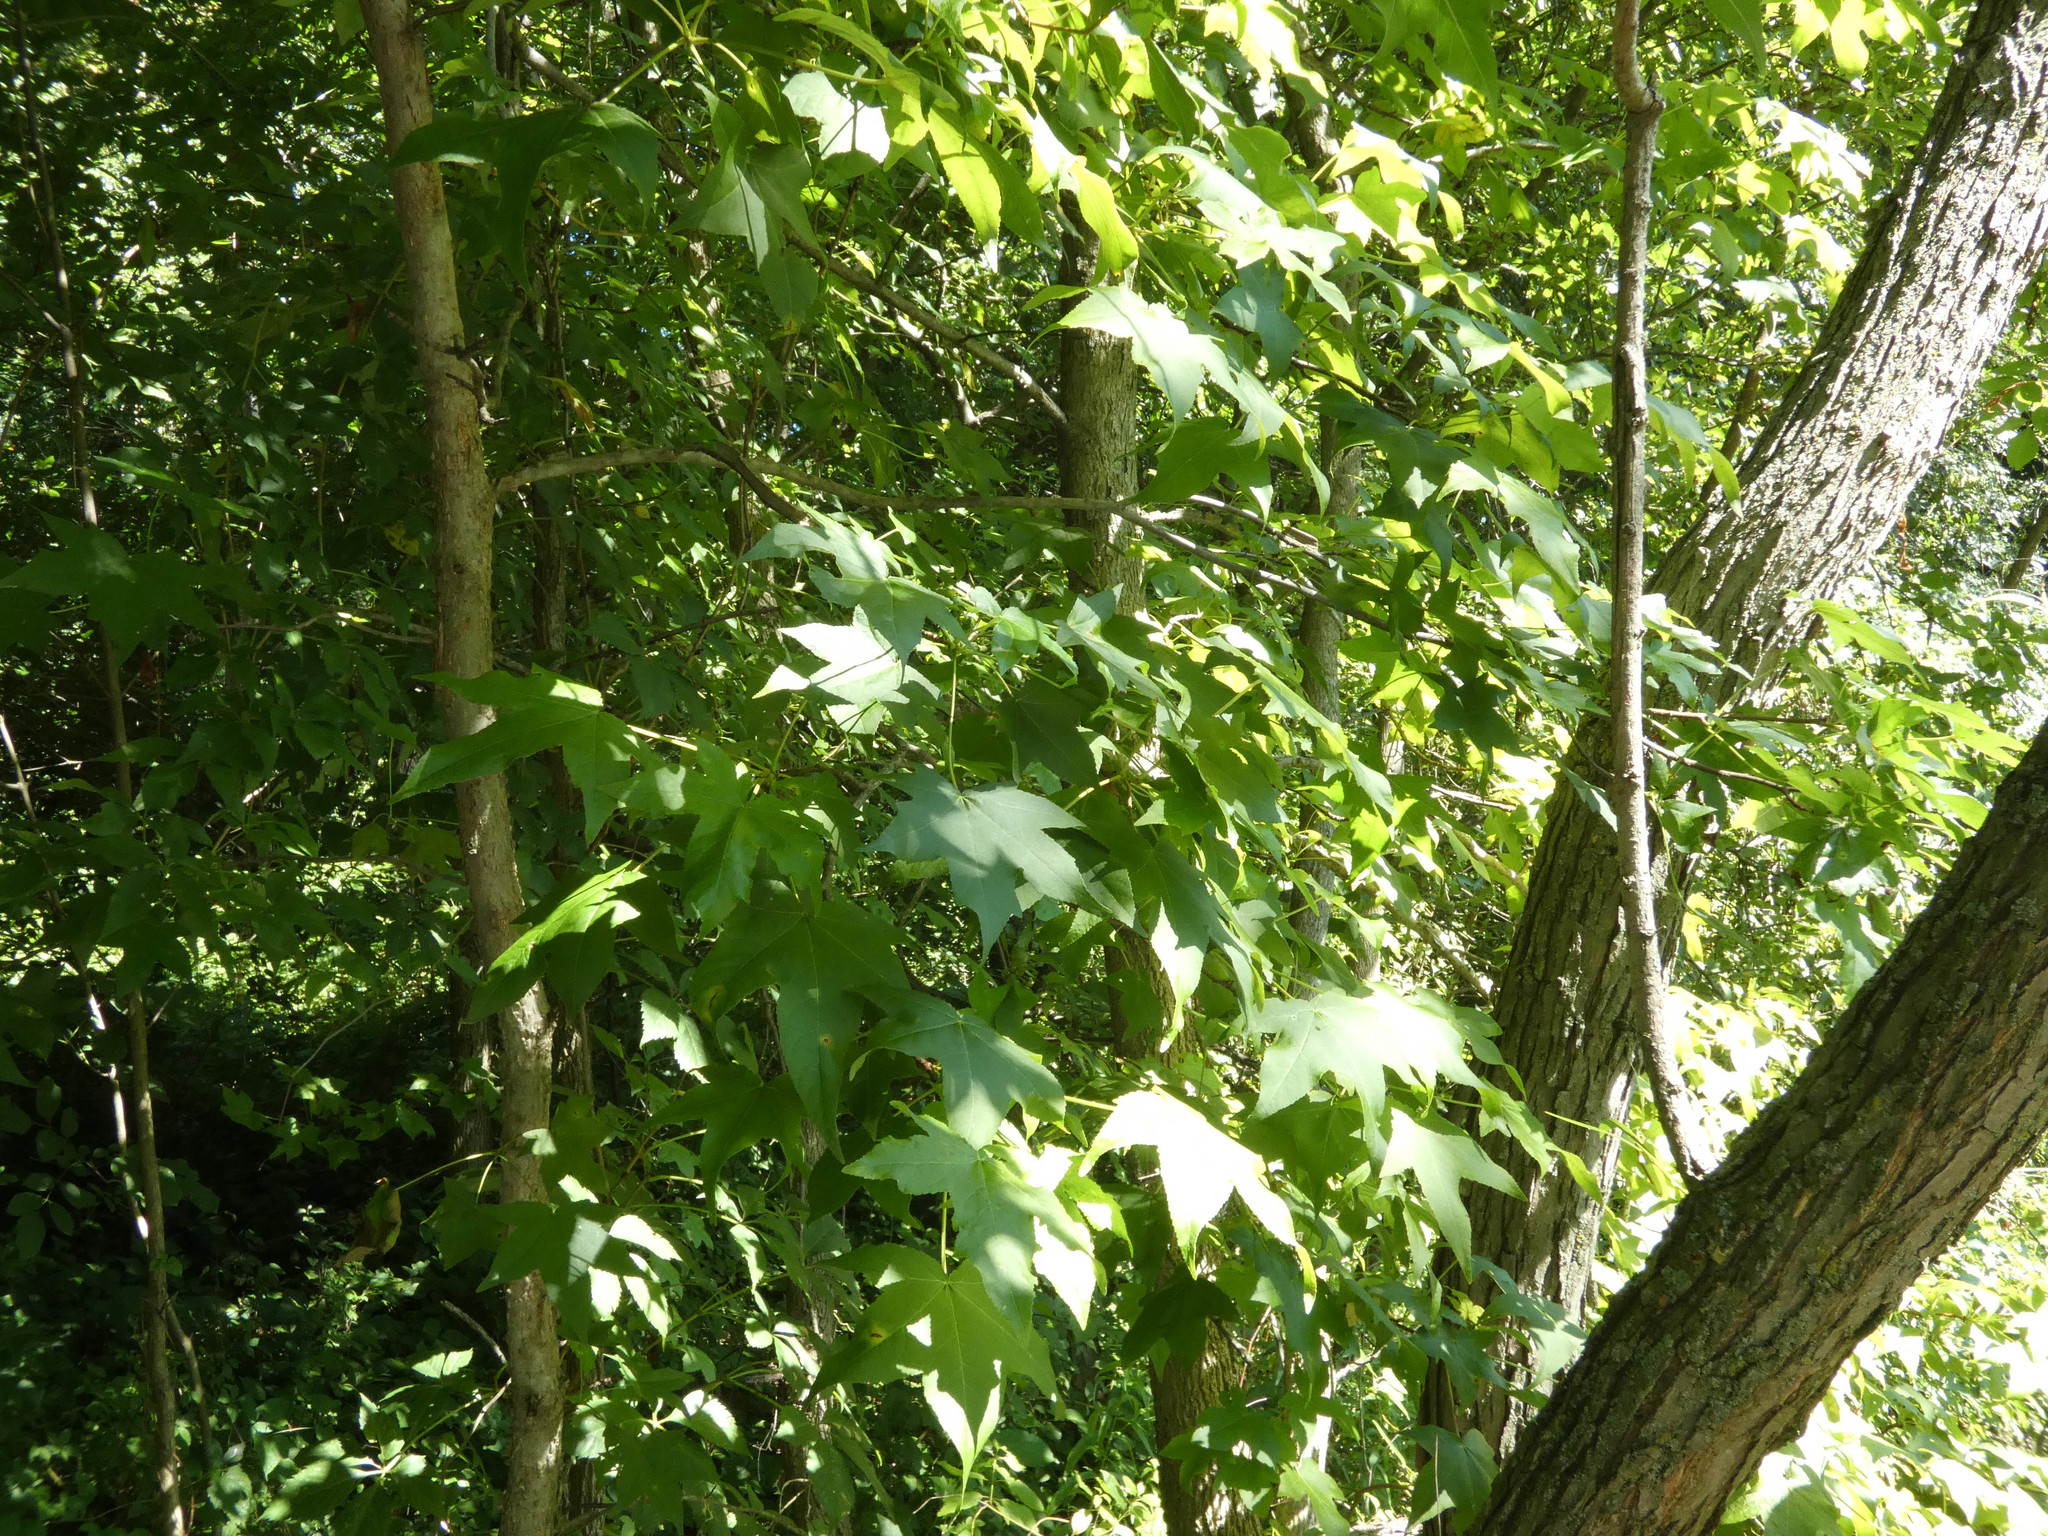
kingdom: Plantae
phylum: Tracheophyta
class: Magnoliopsida
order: Saxifragales
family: Altingiaceae
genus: Liquidambar
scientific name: Liquidambar styraciflua
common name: Sweet gum
